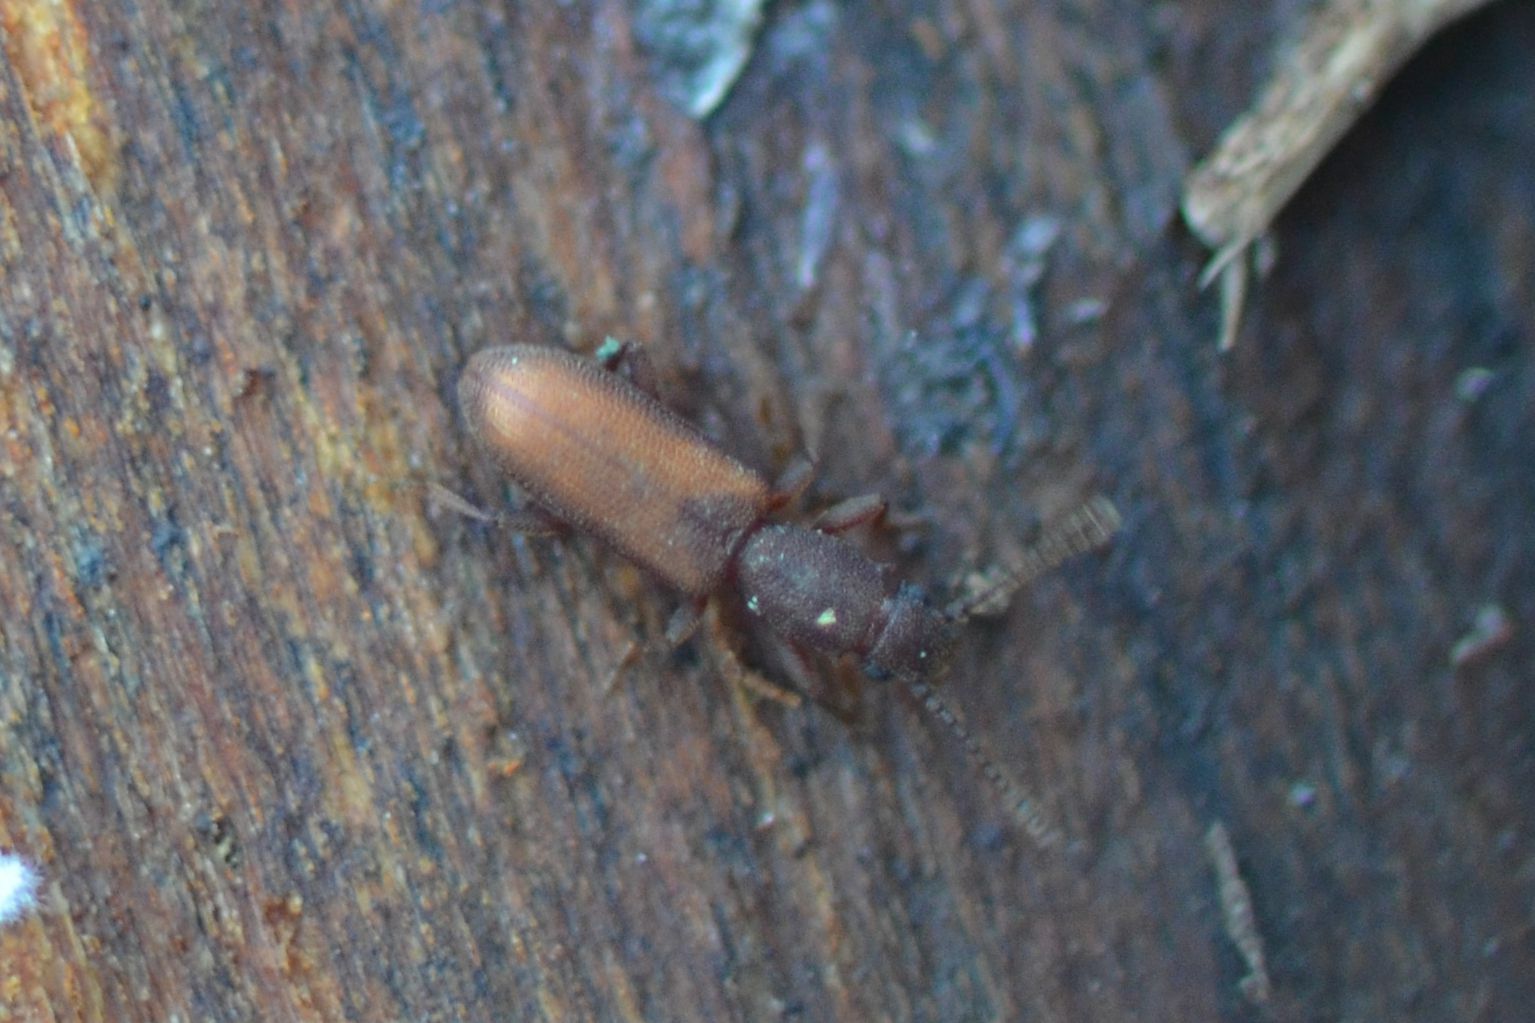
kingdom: Animalia
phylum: Arthropoda
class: Insecta
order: Coleoptera
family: Curculionidae
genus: Pityogenes
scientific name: Pityogenes bidentatus
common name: Two-toothed pine beetle
